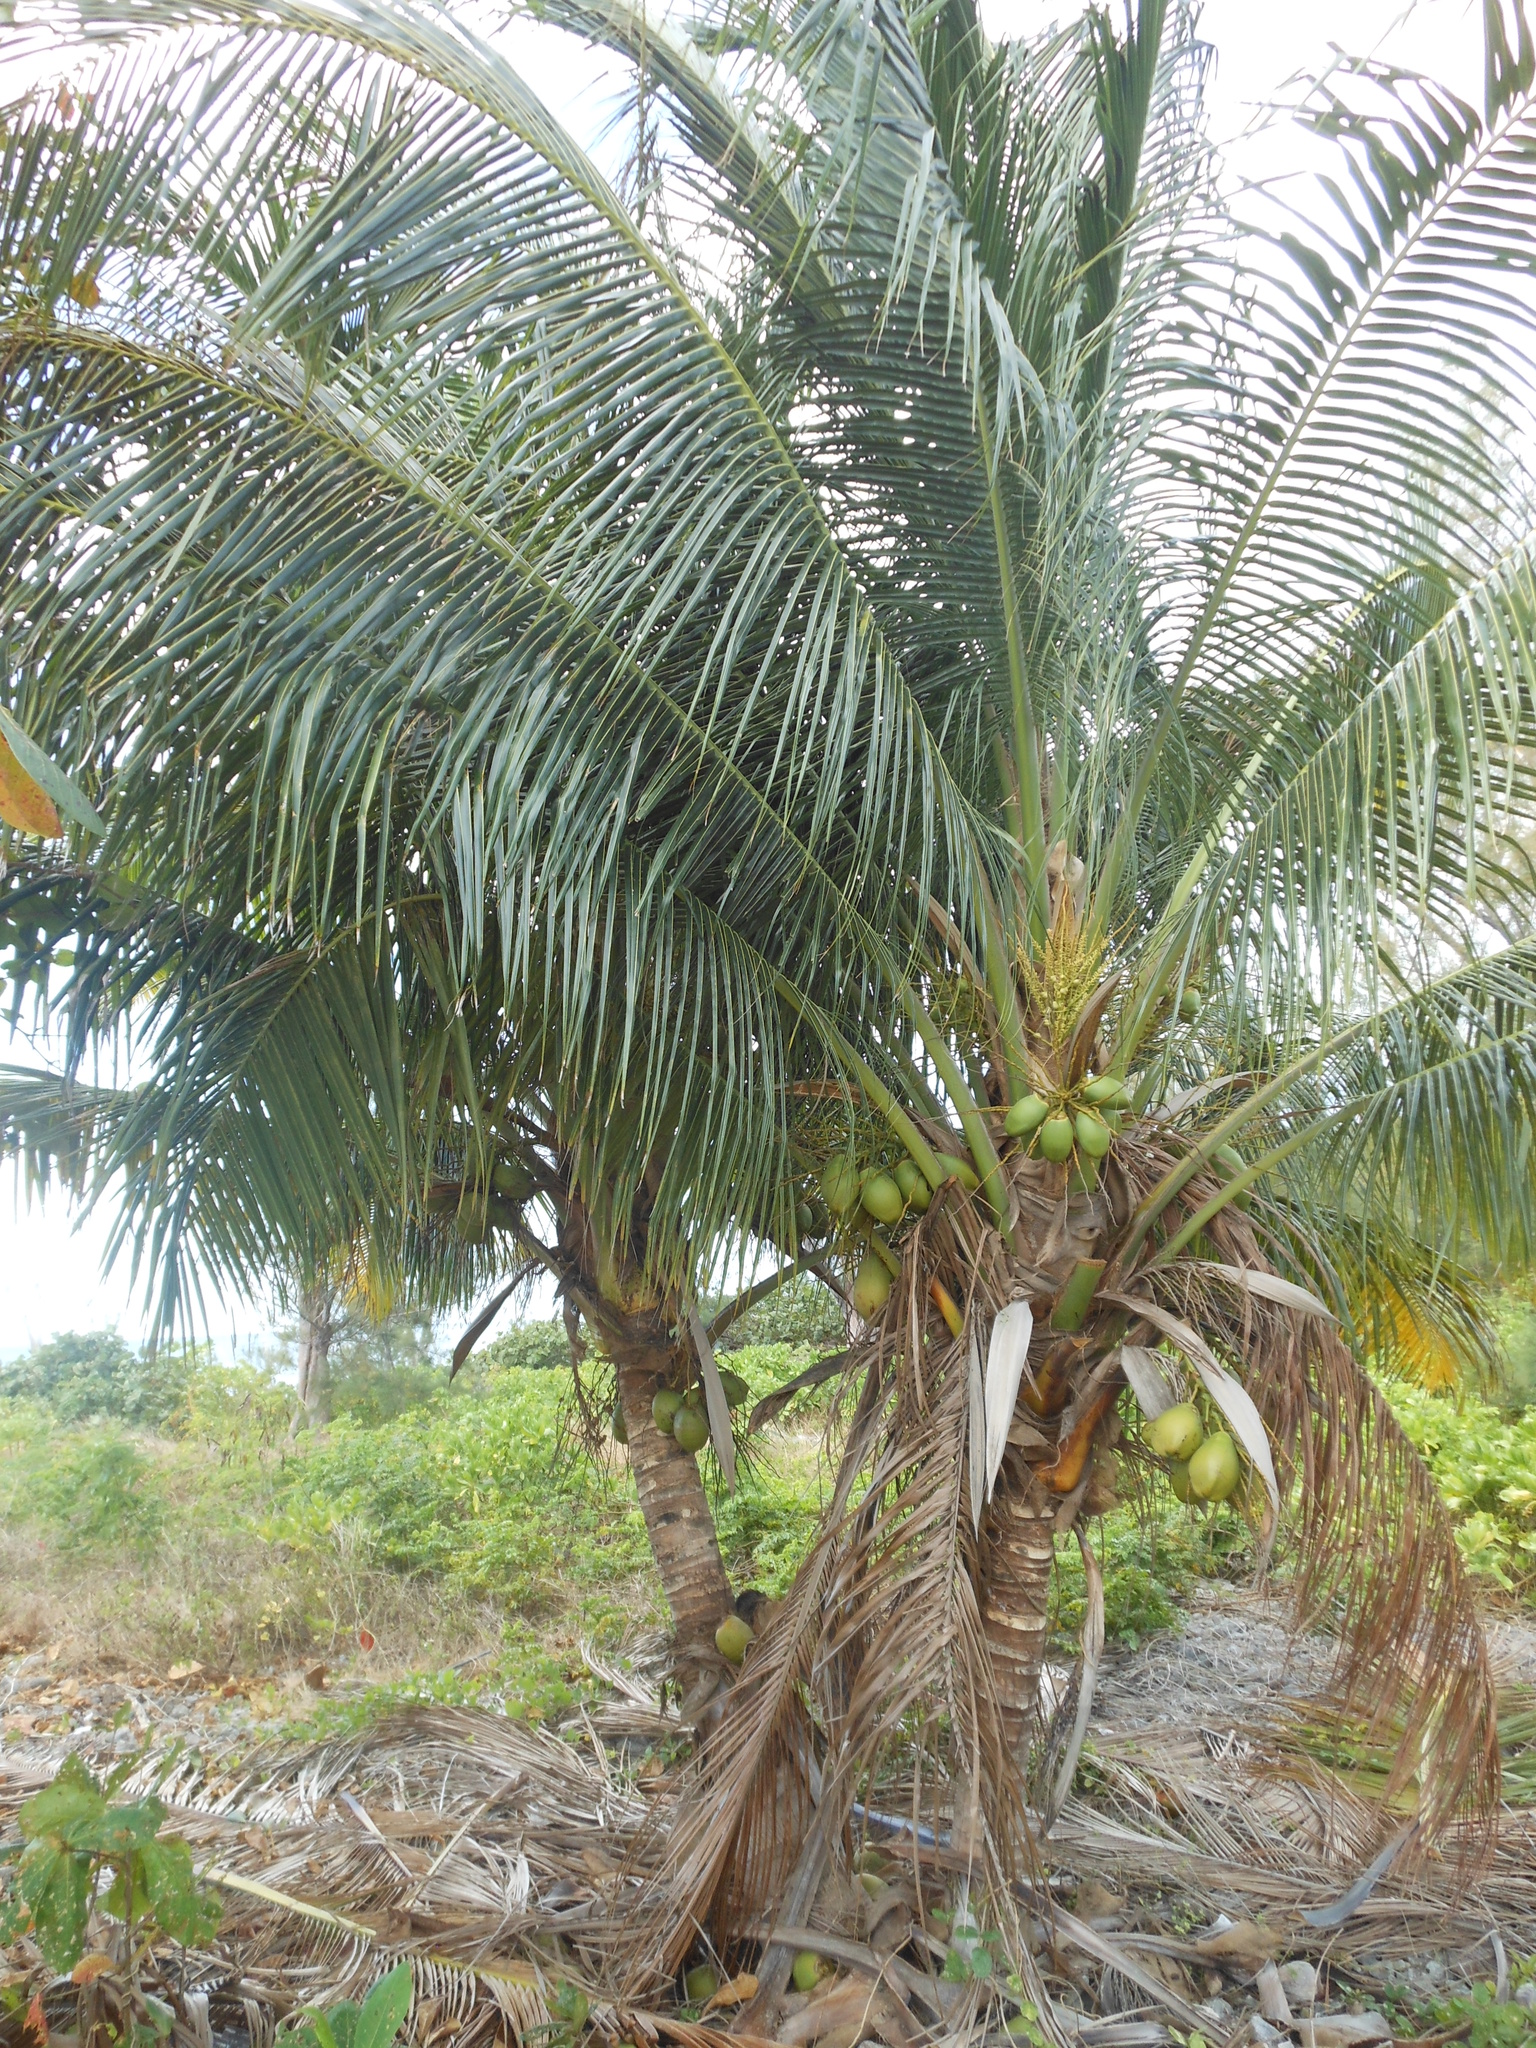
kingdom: Plantae
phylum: Tracheophyta
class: Liliopsida
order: Arecales
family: Arecaceae
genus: Cocos
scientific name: Cocos nucifera
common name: Coconut palm
